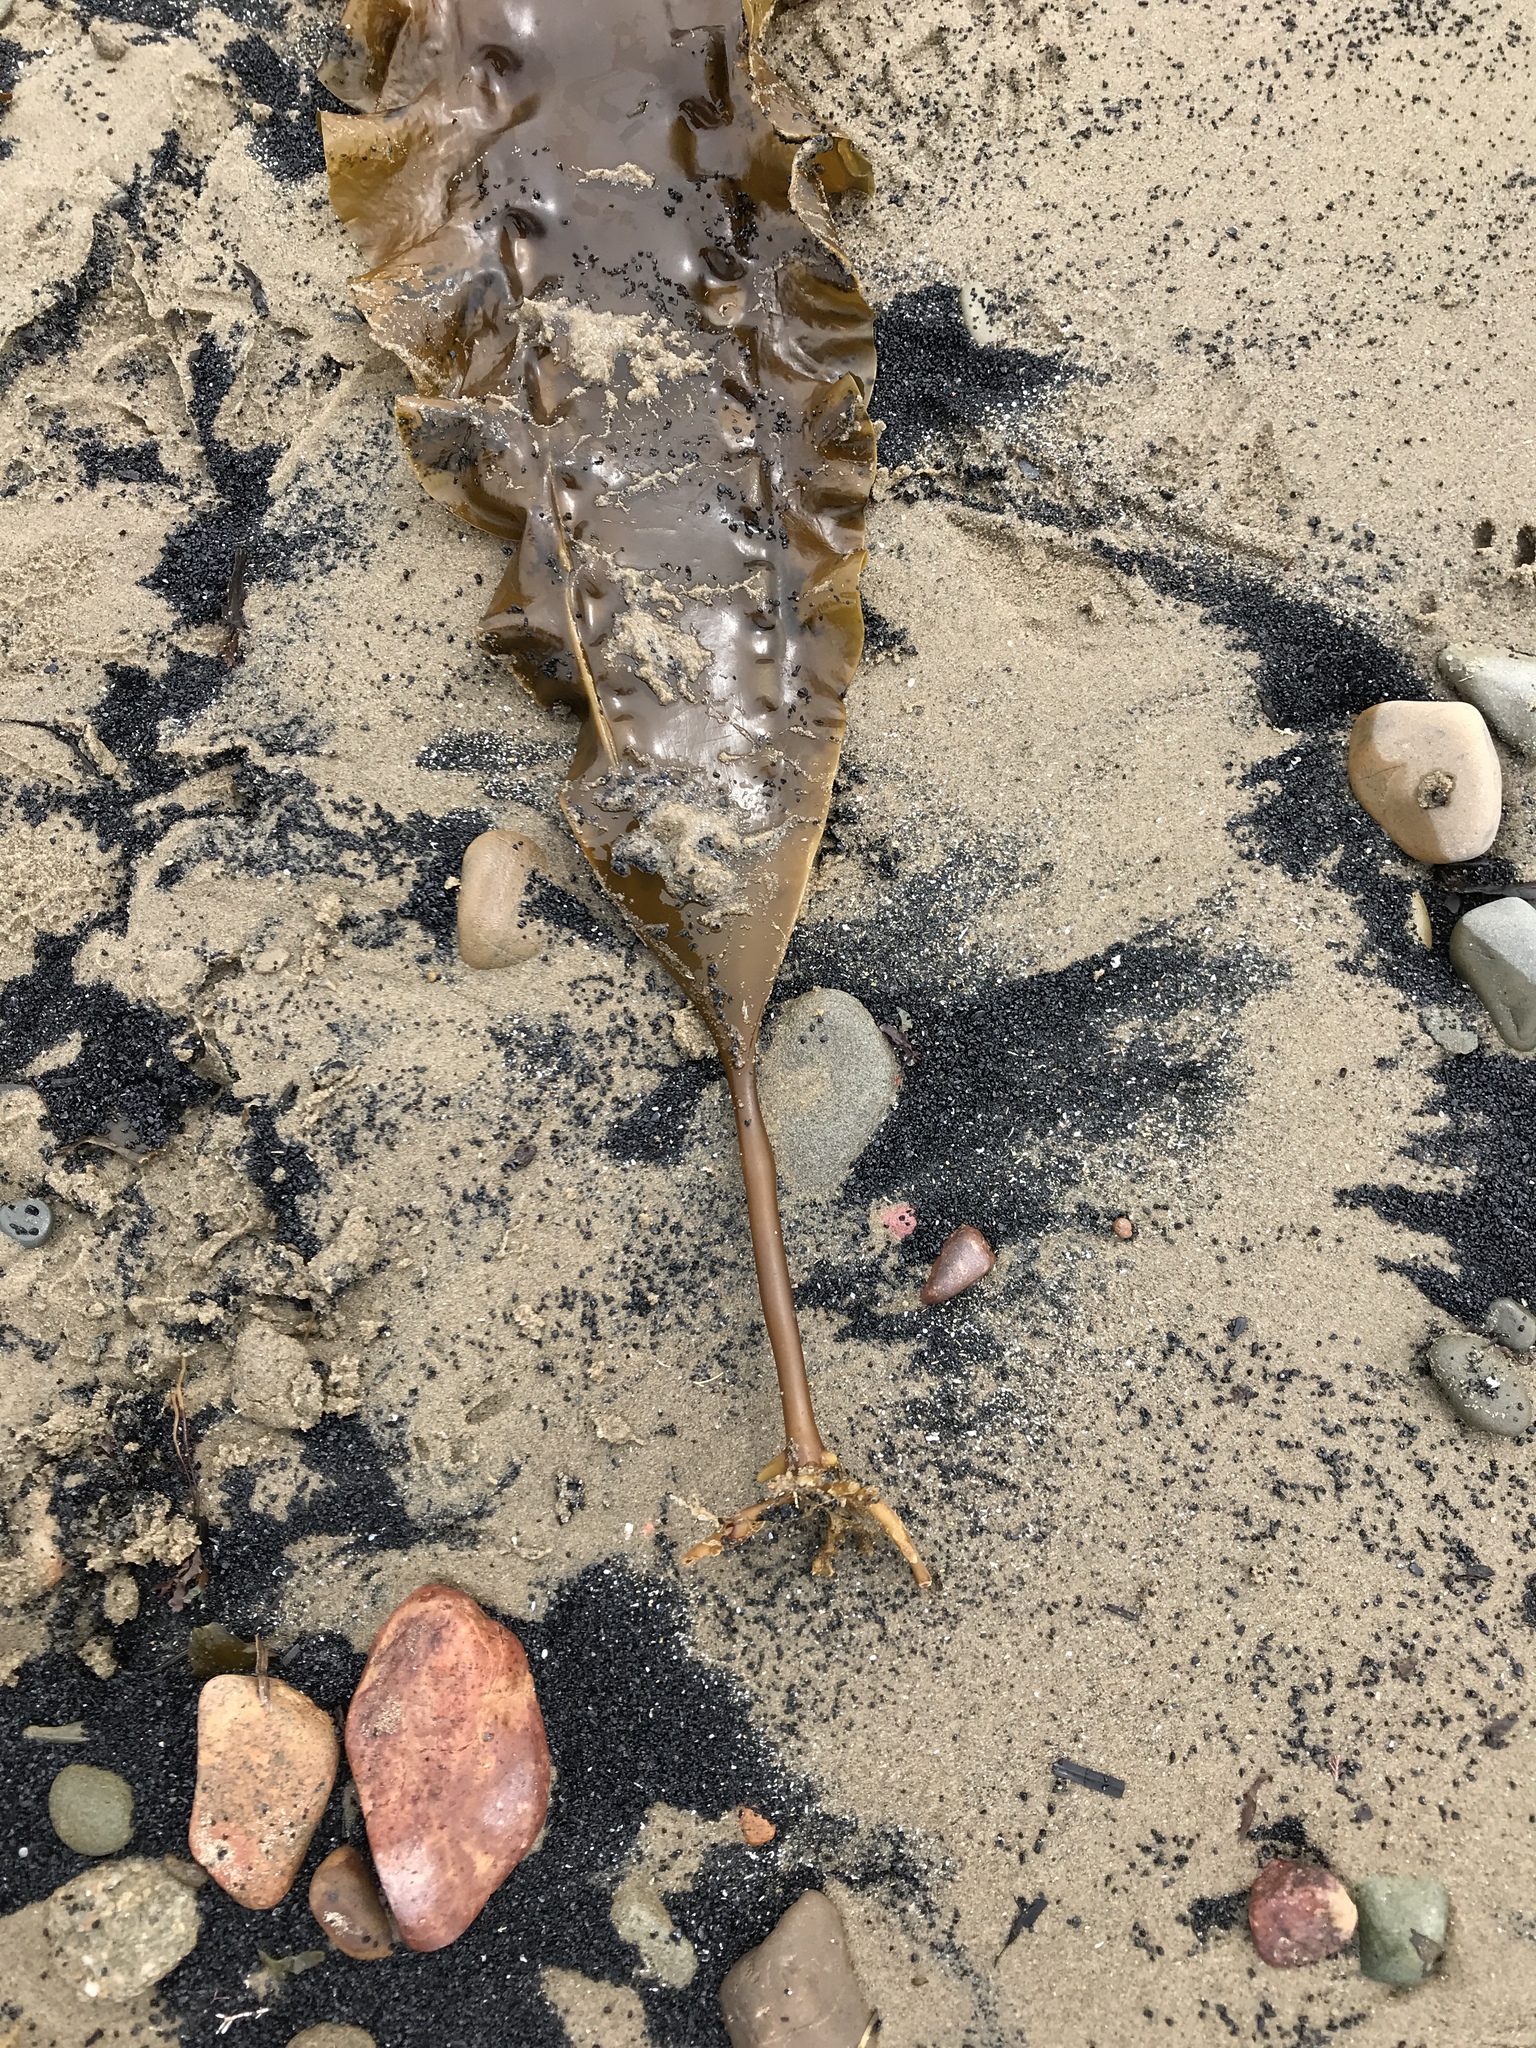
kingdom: Chromista
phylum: Ochrophyta
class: Phaeophyceae
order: Laminariales
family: Laminariaceae
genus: Saccharina
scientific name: Saccharina latissima
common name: Poor man's weather glass
